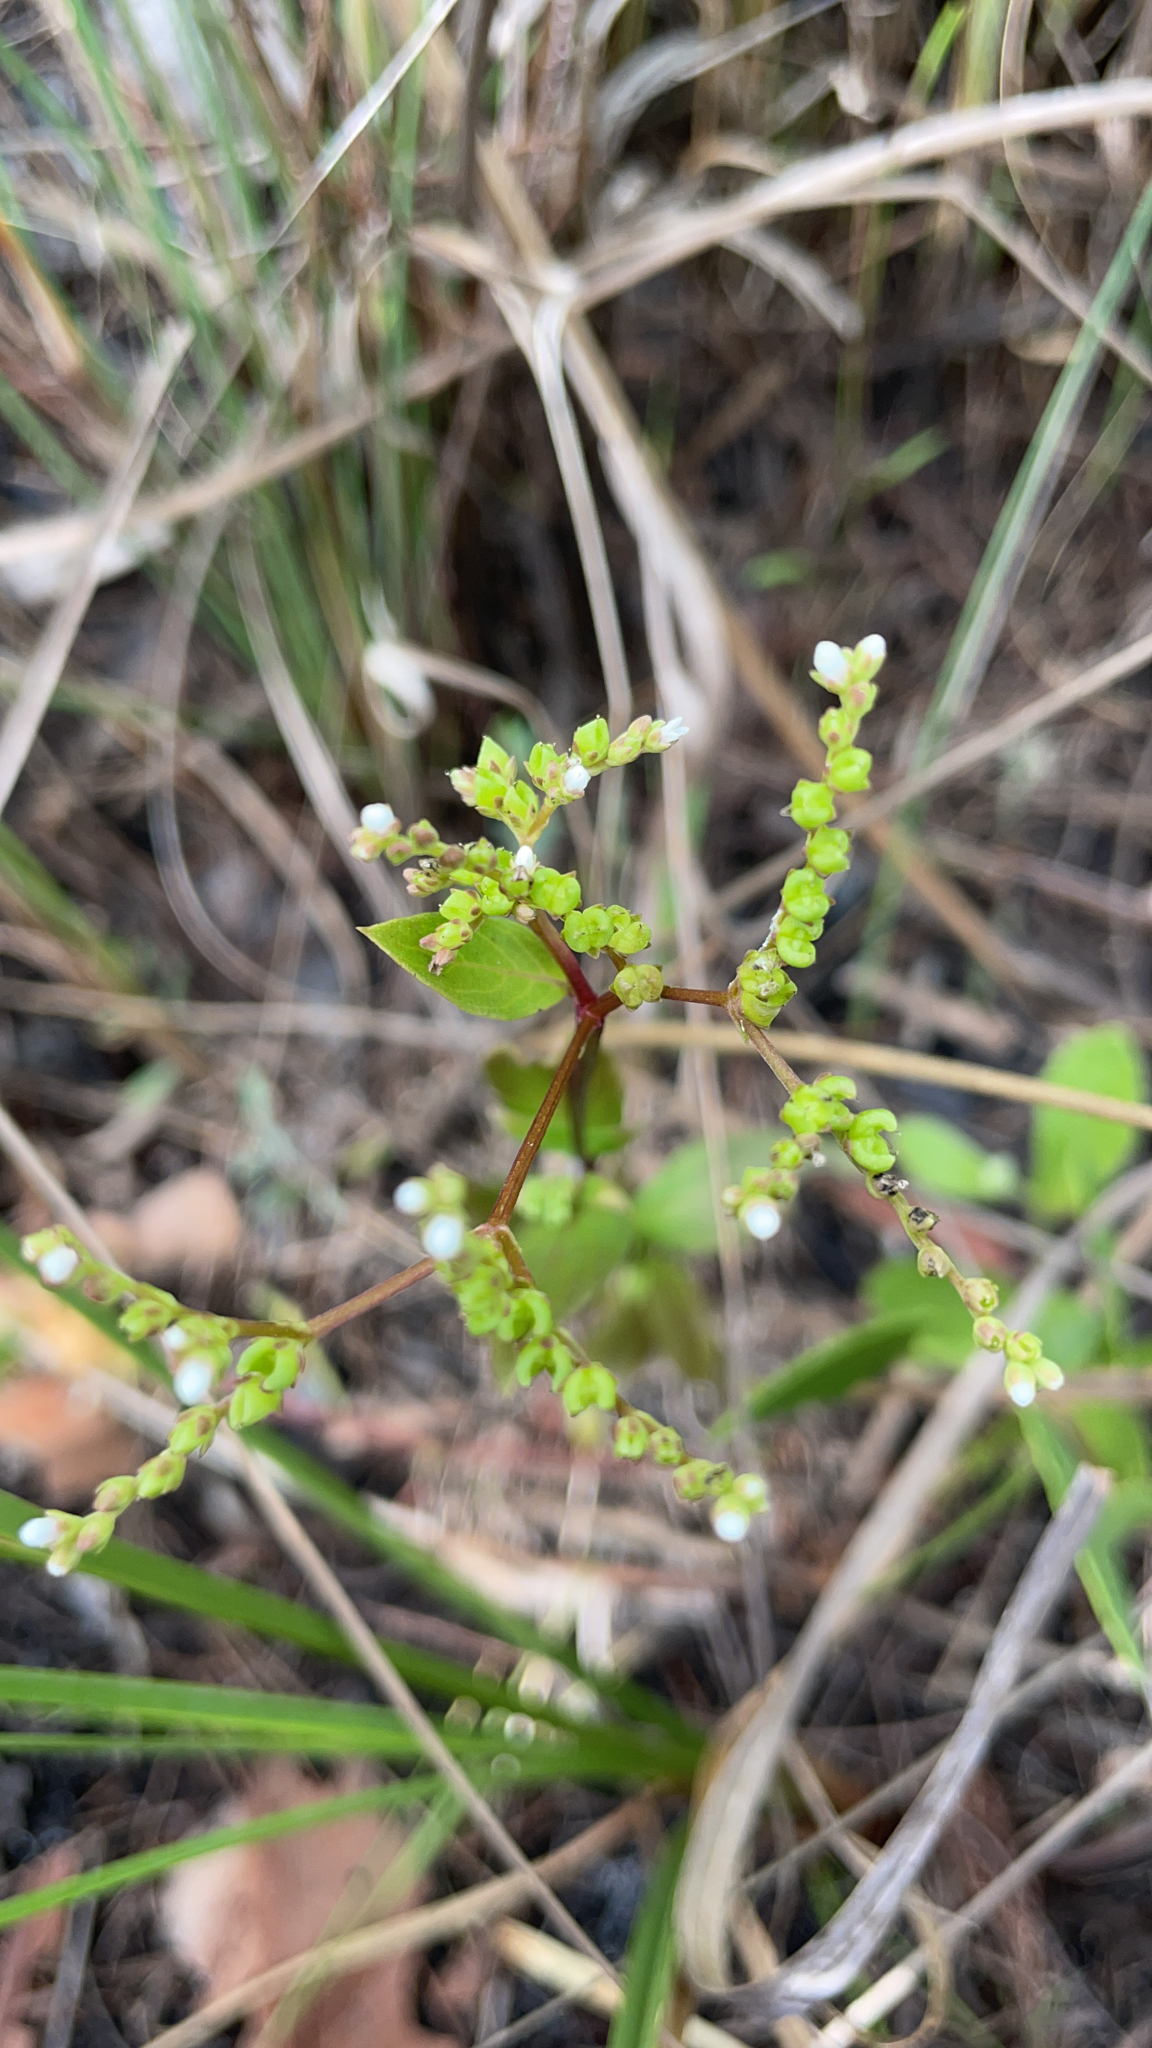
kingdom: Plantae
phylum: Tracheophyta
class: Magnoliopsida
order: Gentianales
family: Loganiaceae
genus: Mitreola
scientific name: Mitreola petiolata
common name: Lax hornpod
